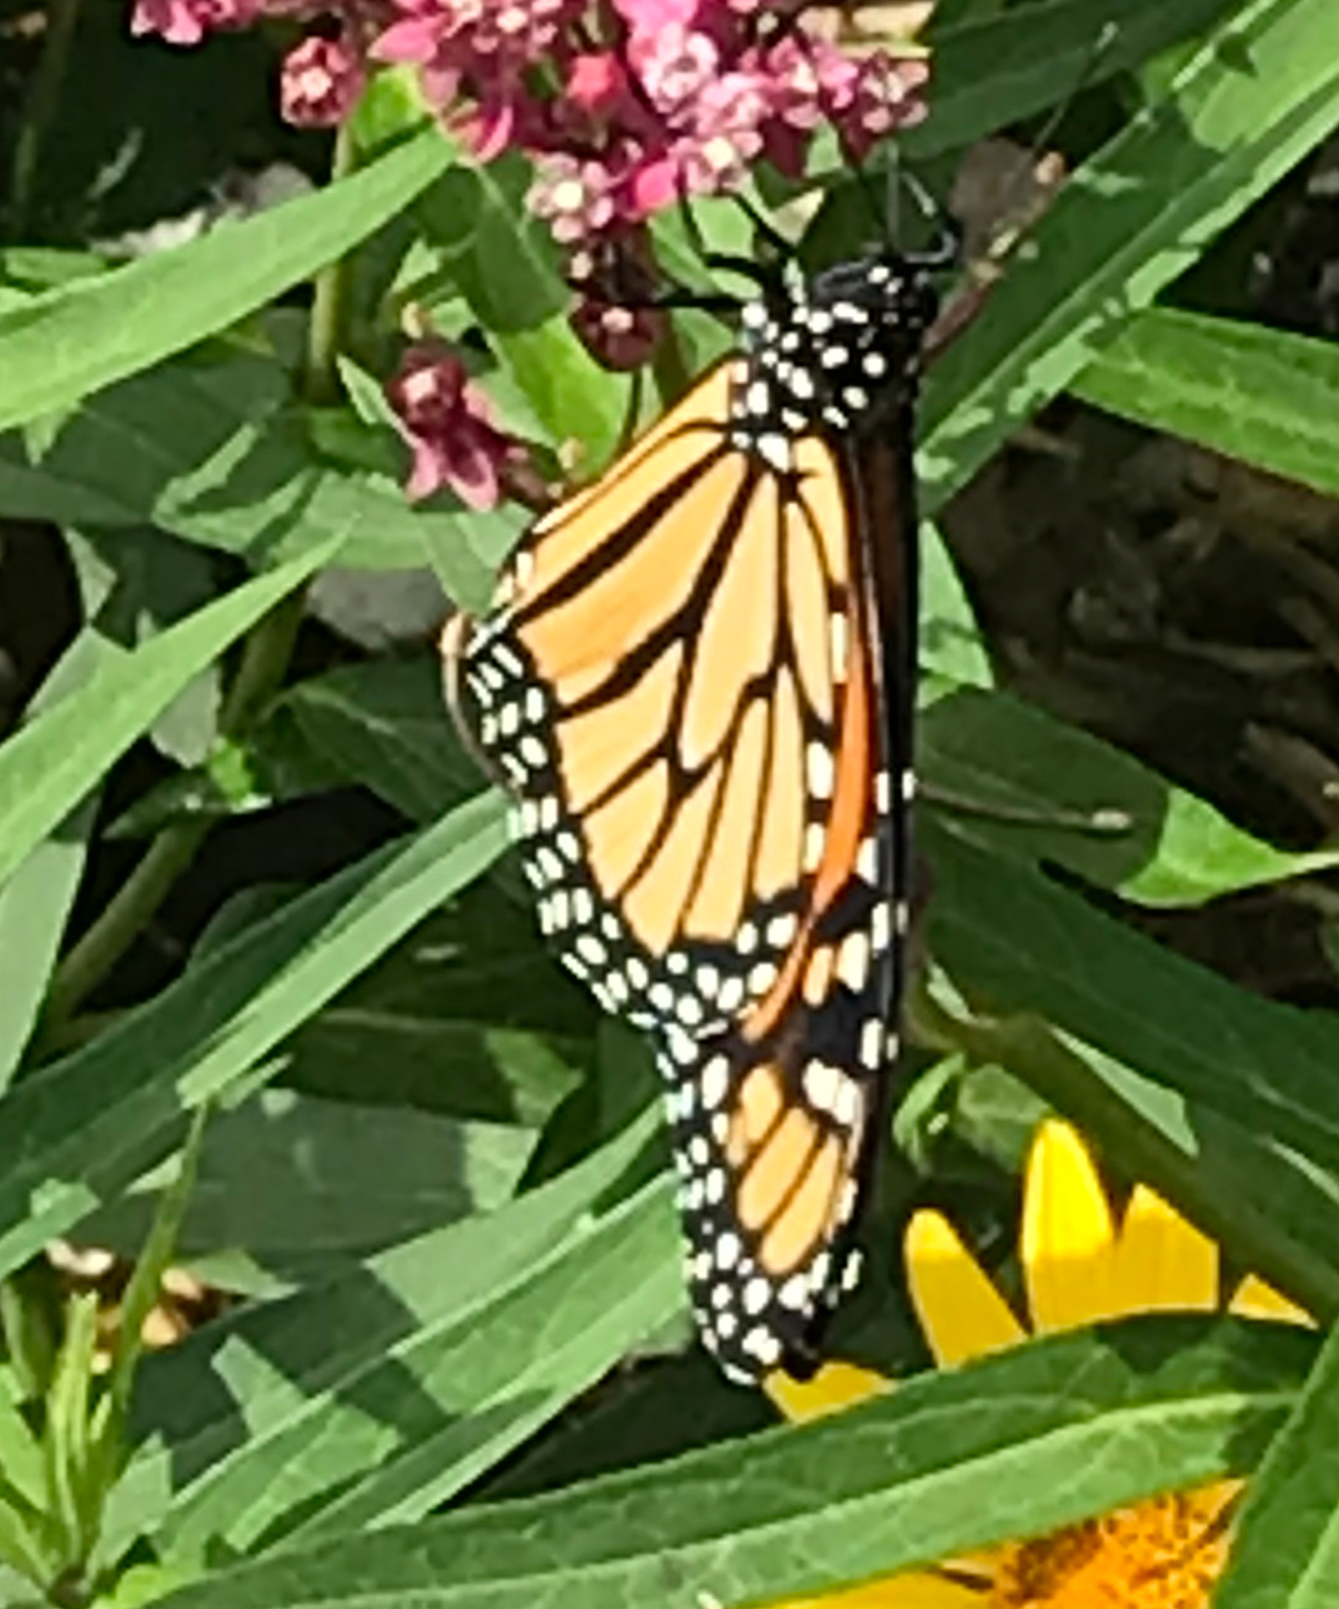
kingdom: Animalia
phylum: Arthropoda
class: Insecta
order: Lepidoptera
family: Nymphalidae
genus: Danaus
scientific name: Danaus plexippus
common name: Monarch
